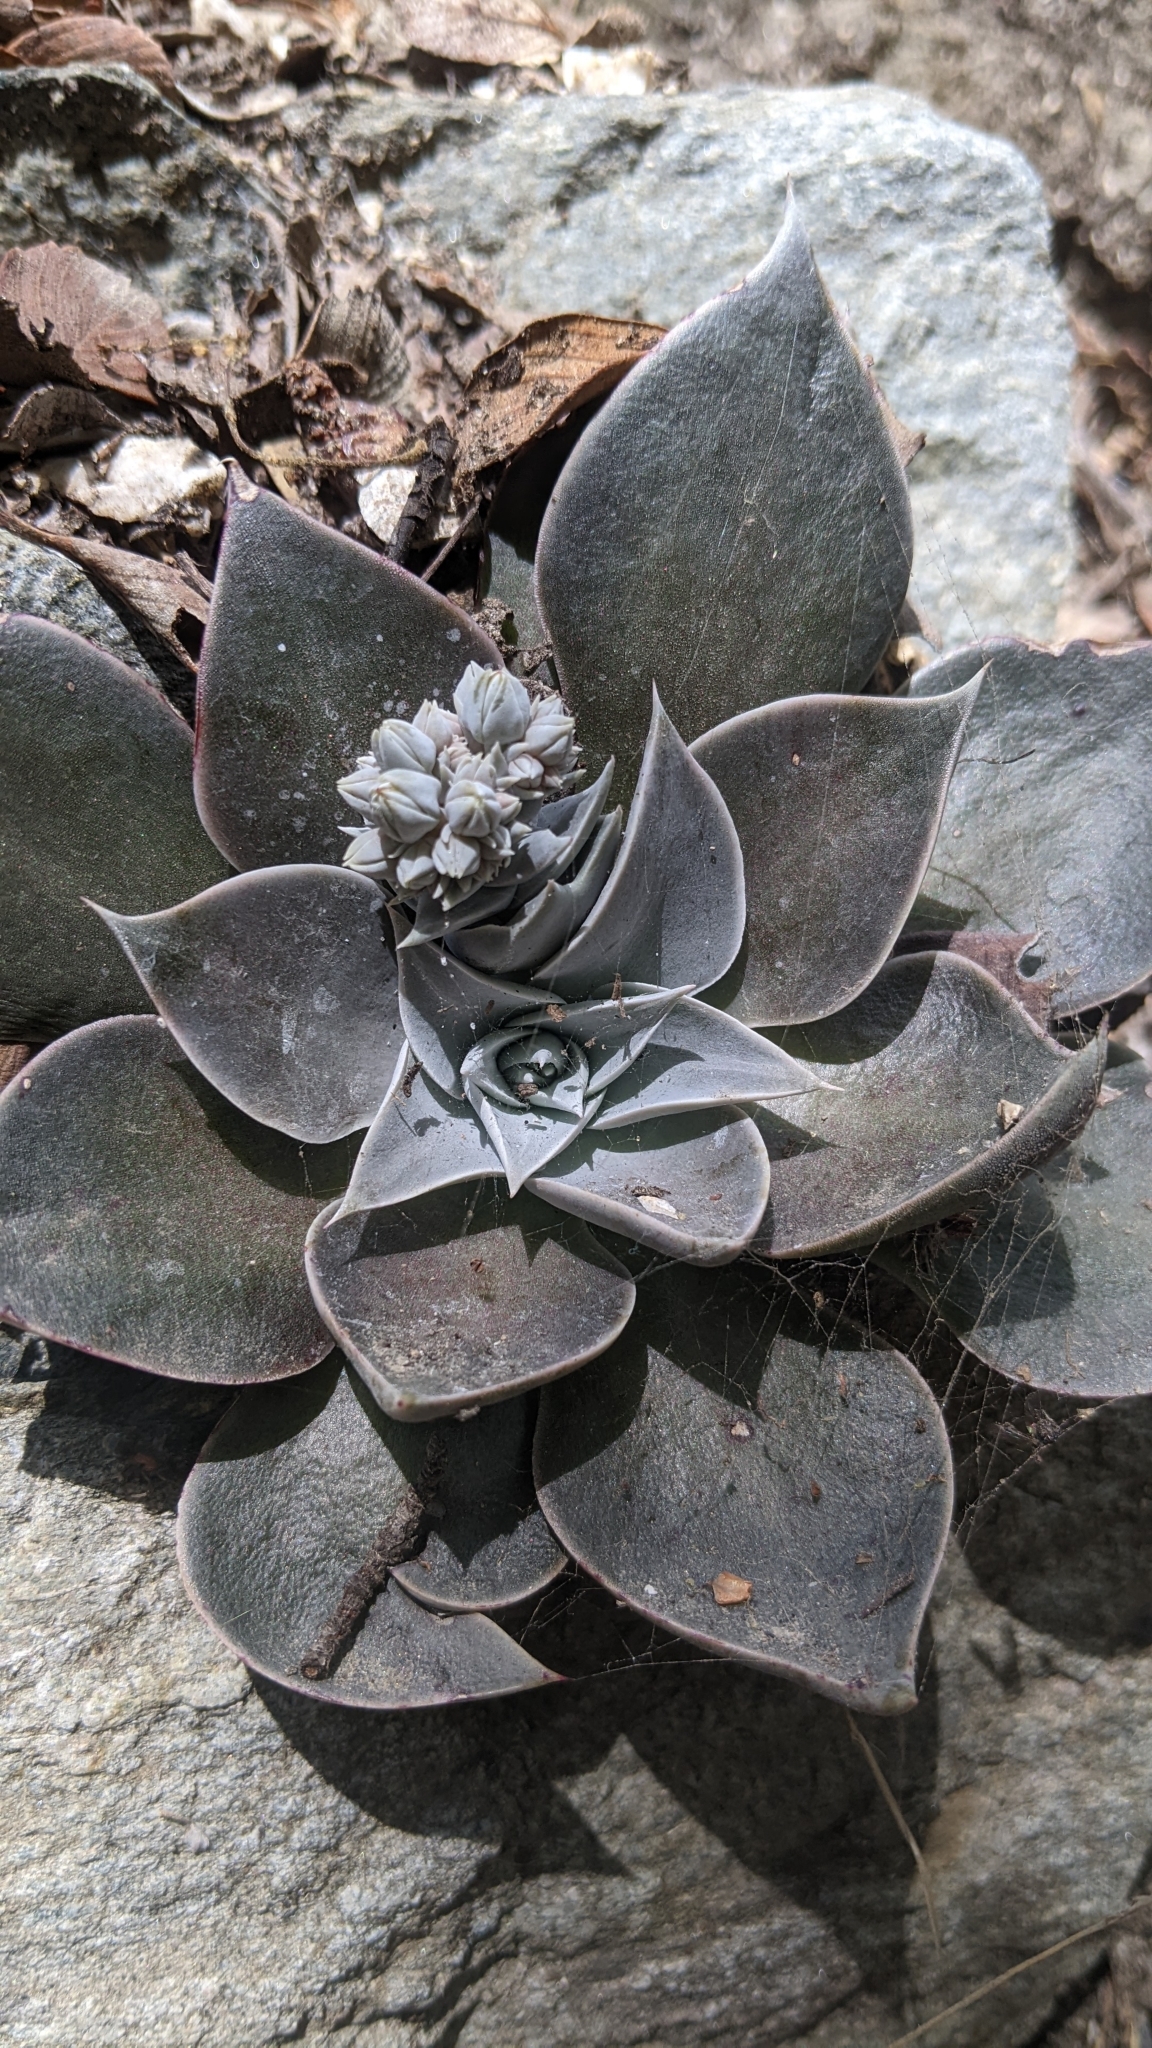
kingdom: Plantae
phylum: Tracheophyta
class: Magnoliopsida
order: Saxifragales
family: Crassulaceae
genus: Dudleya
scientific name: Dudleya cymosa
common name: Canyon dudleya
